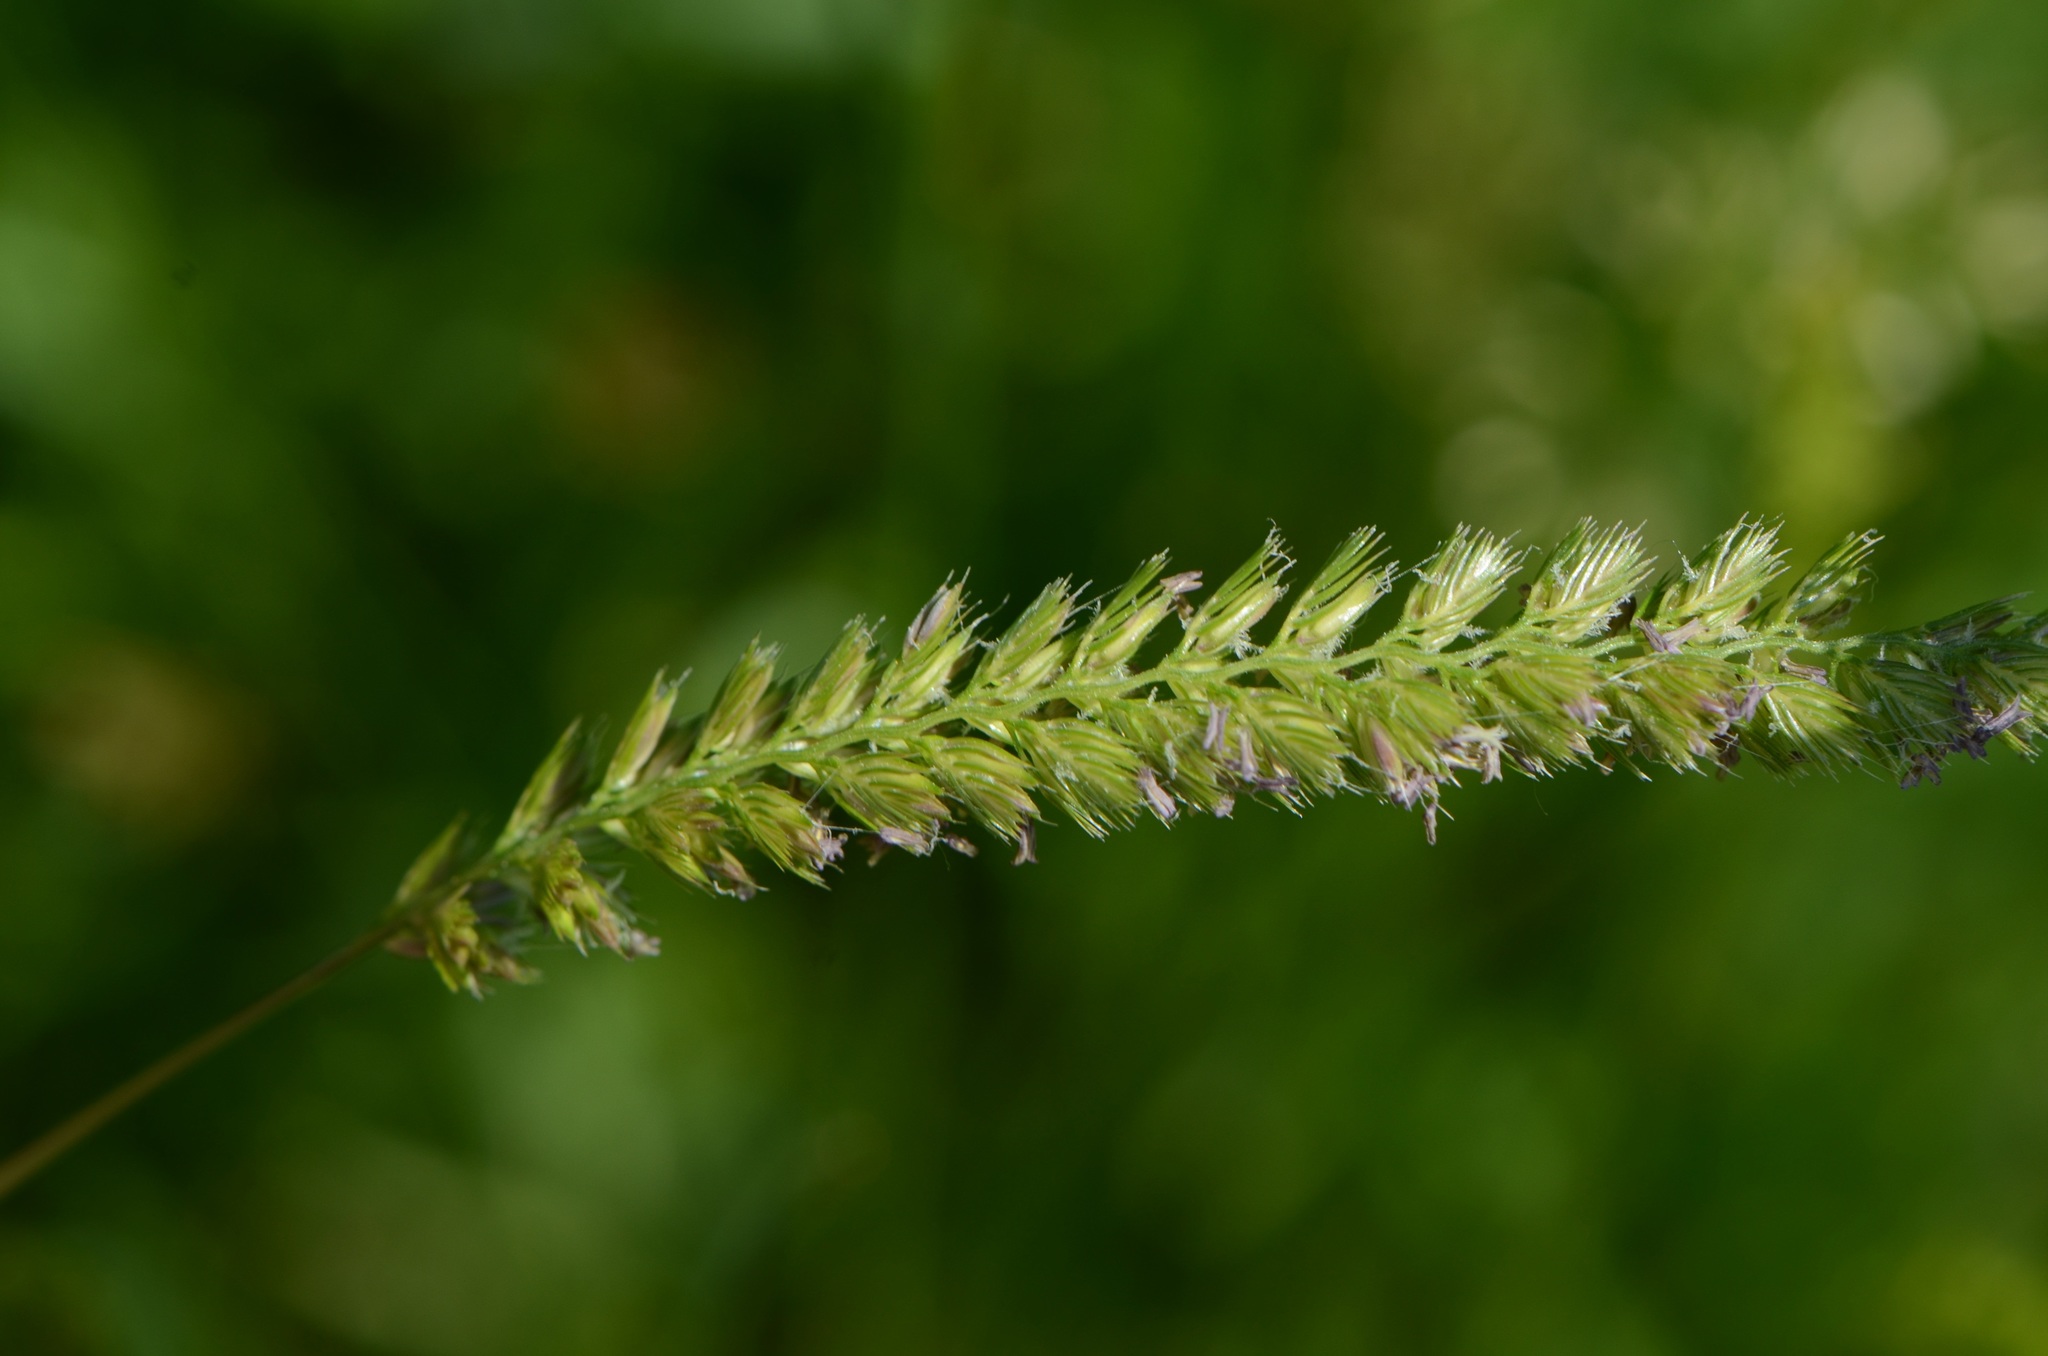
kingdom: Plantae
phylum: Tracheophyta
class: Liliopsida
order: Poales
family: Poaceae
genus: Cynosurus
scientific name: Cynosurus cristatus
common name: Crested dog's-tail
